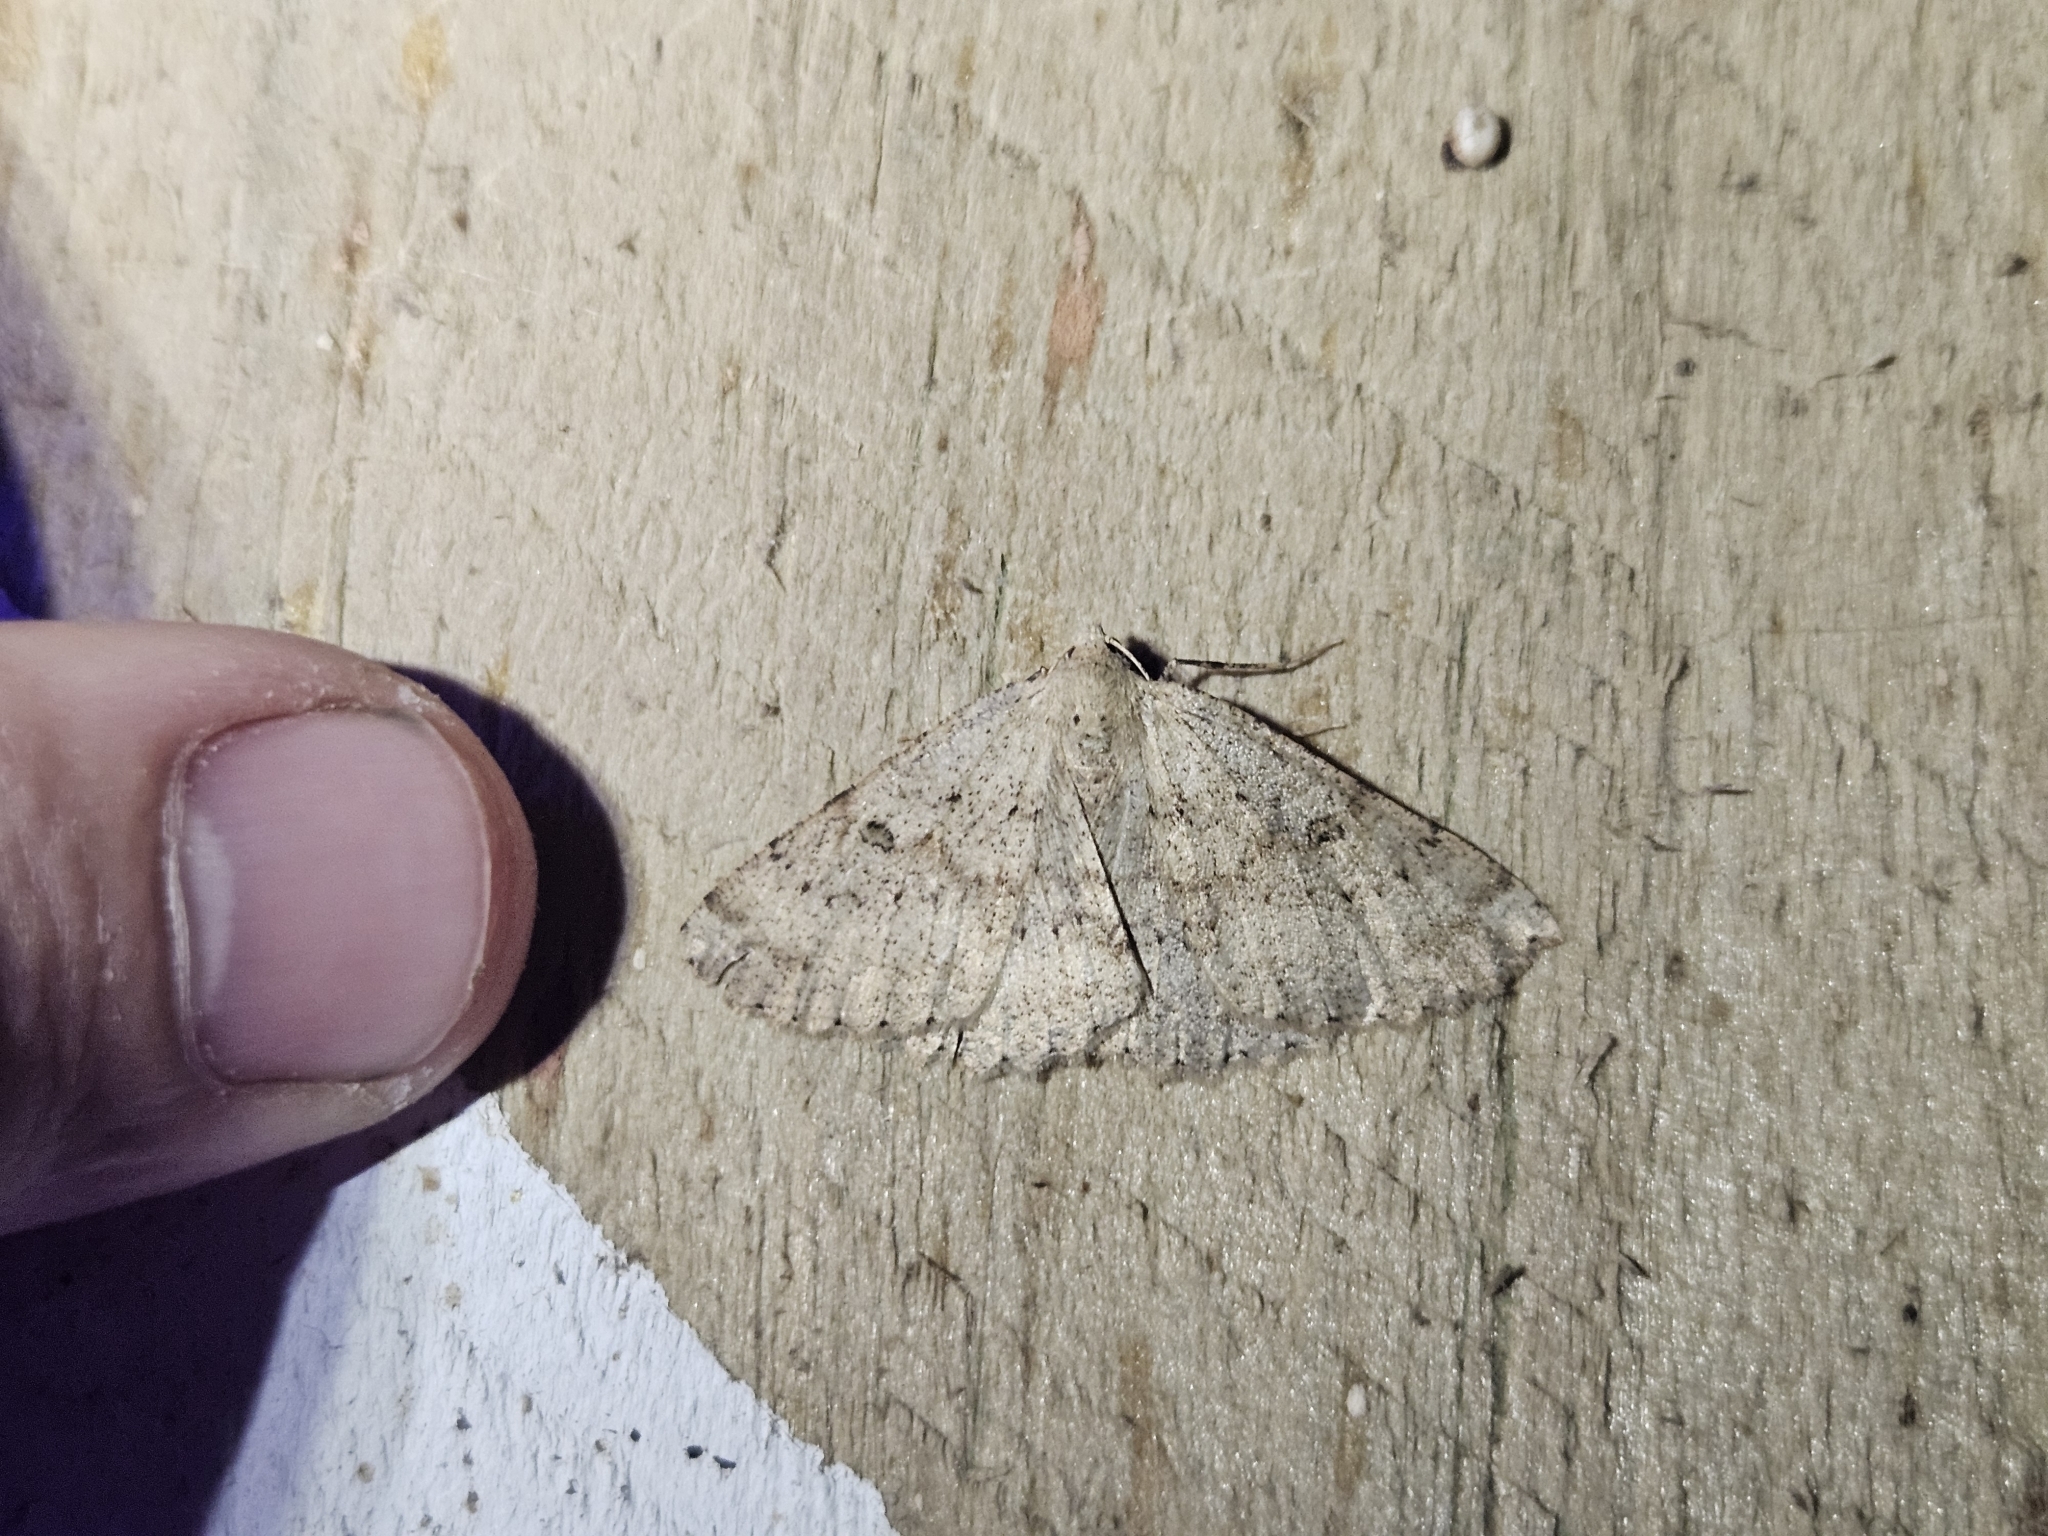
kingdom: Animalia
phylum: Arthropoda
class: Insecta
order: Lepidoptera
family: Geometridae
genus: Cleora
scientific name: Cleora scriptaria
